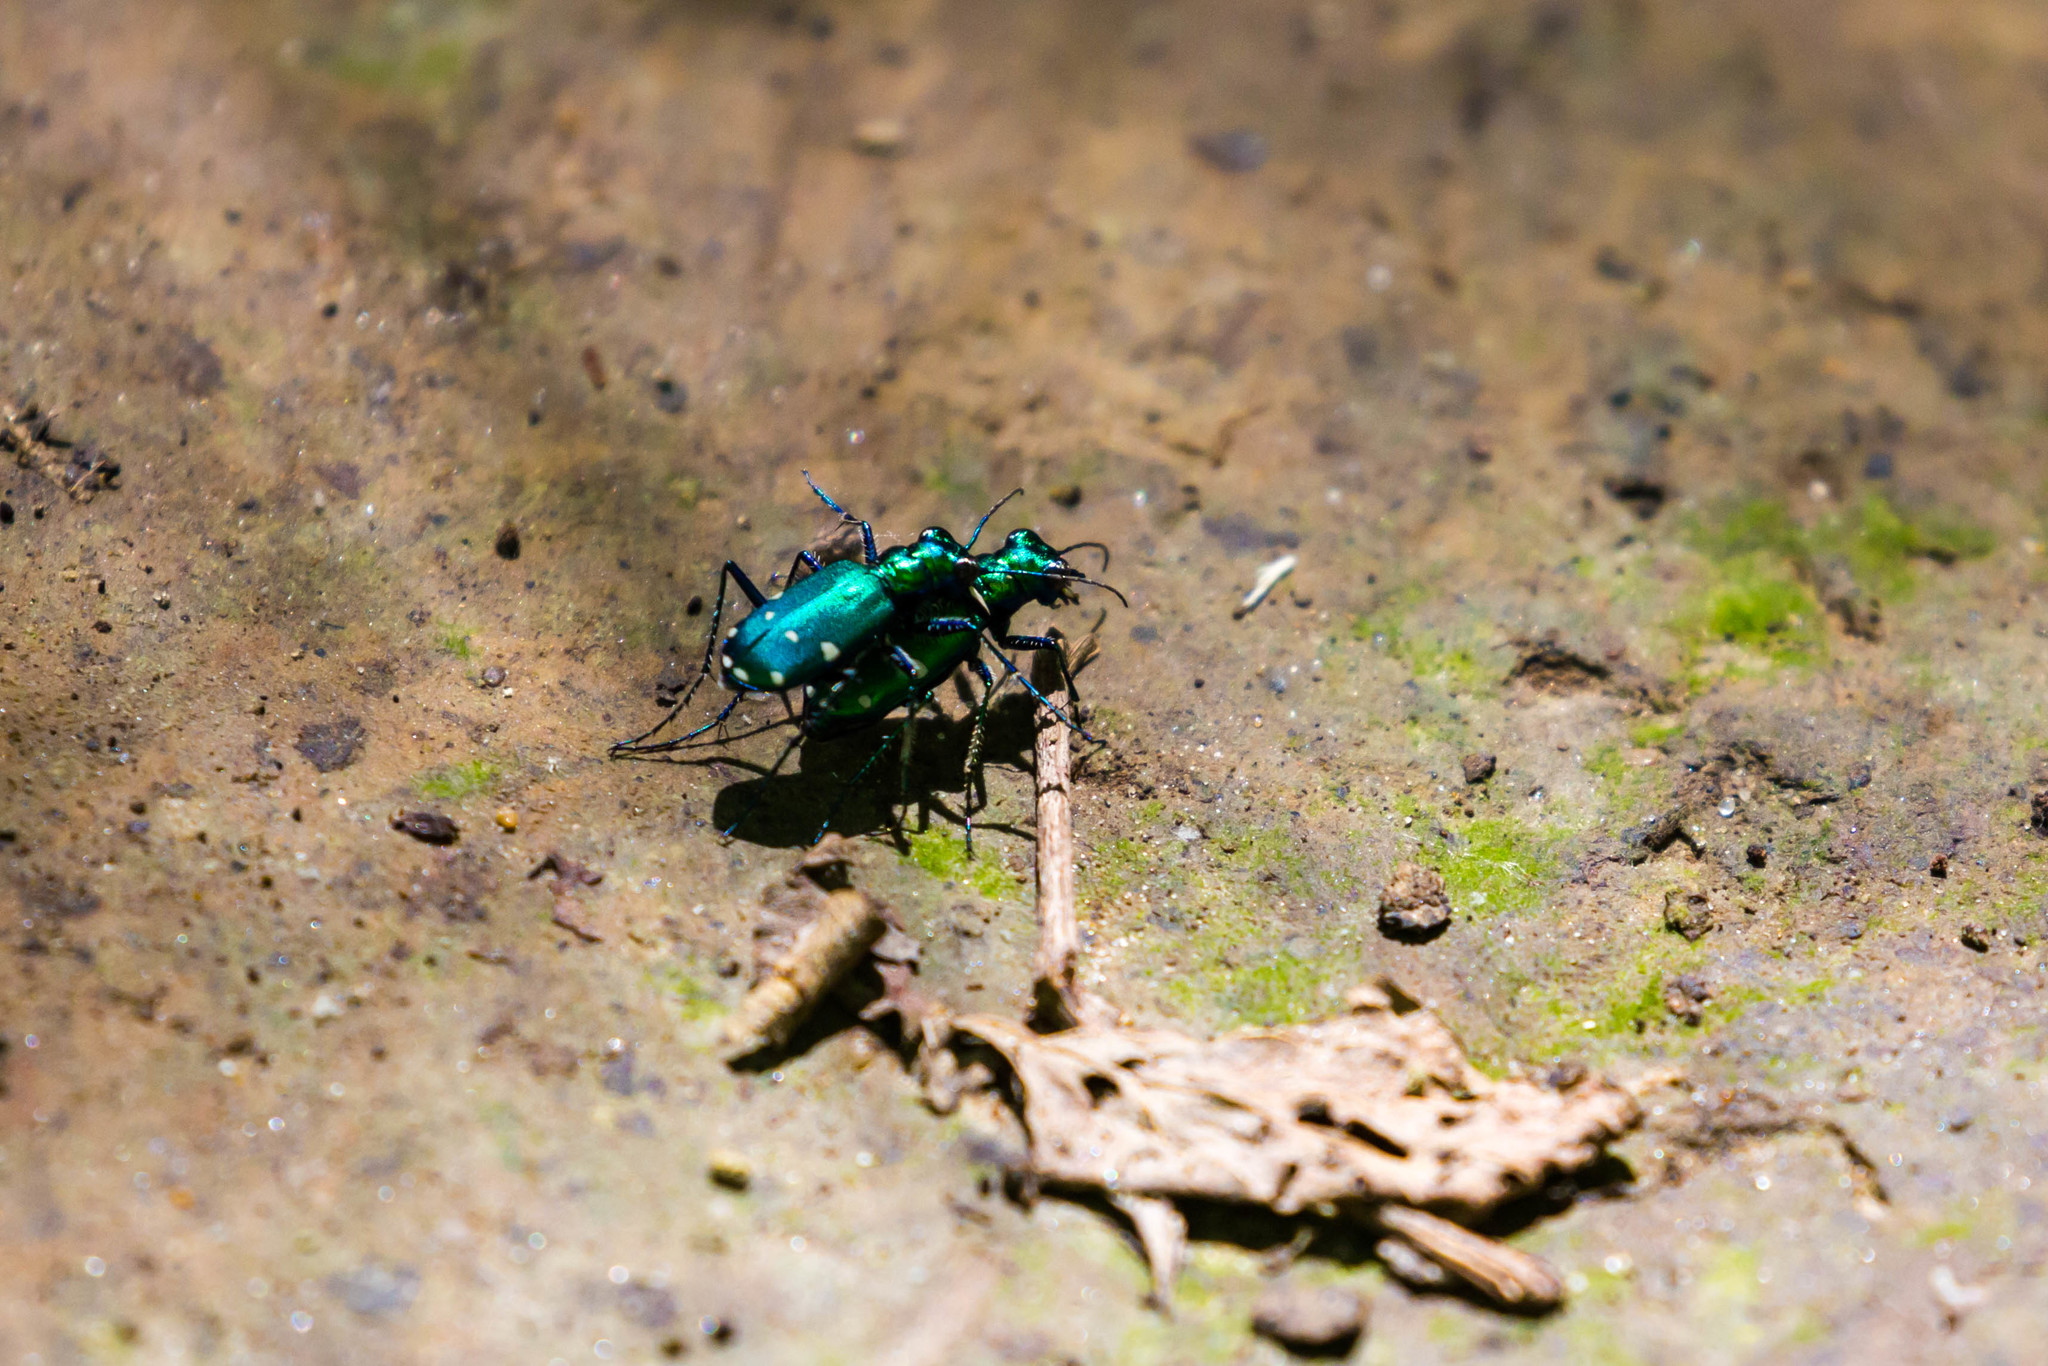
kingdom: Animalia
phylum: Arthropoda
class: Insecta
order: Coleoptera
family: Carabidae
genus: Cicindela
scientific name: Cicindela sexguttata
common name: Six-spotted tiger beetle
